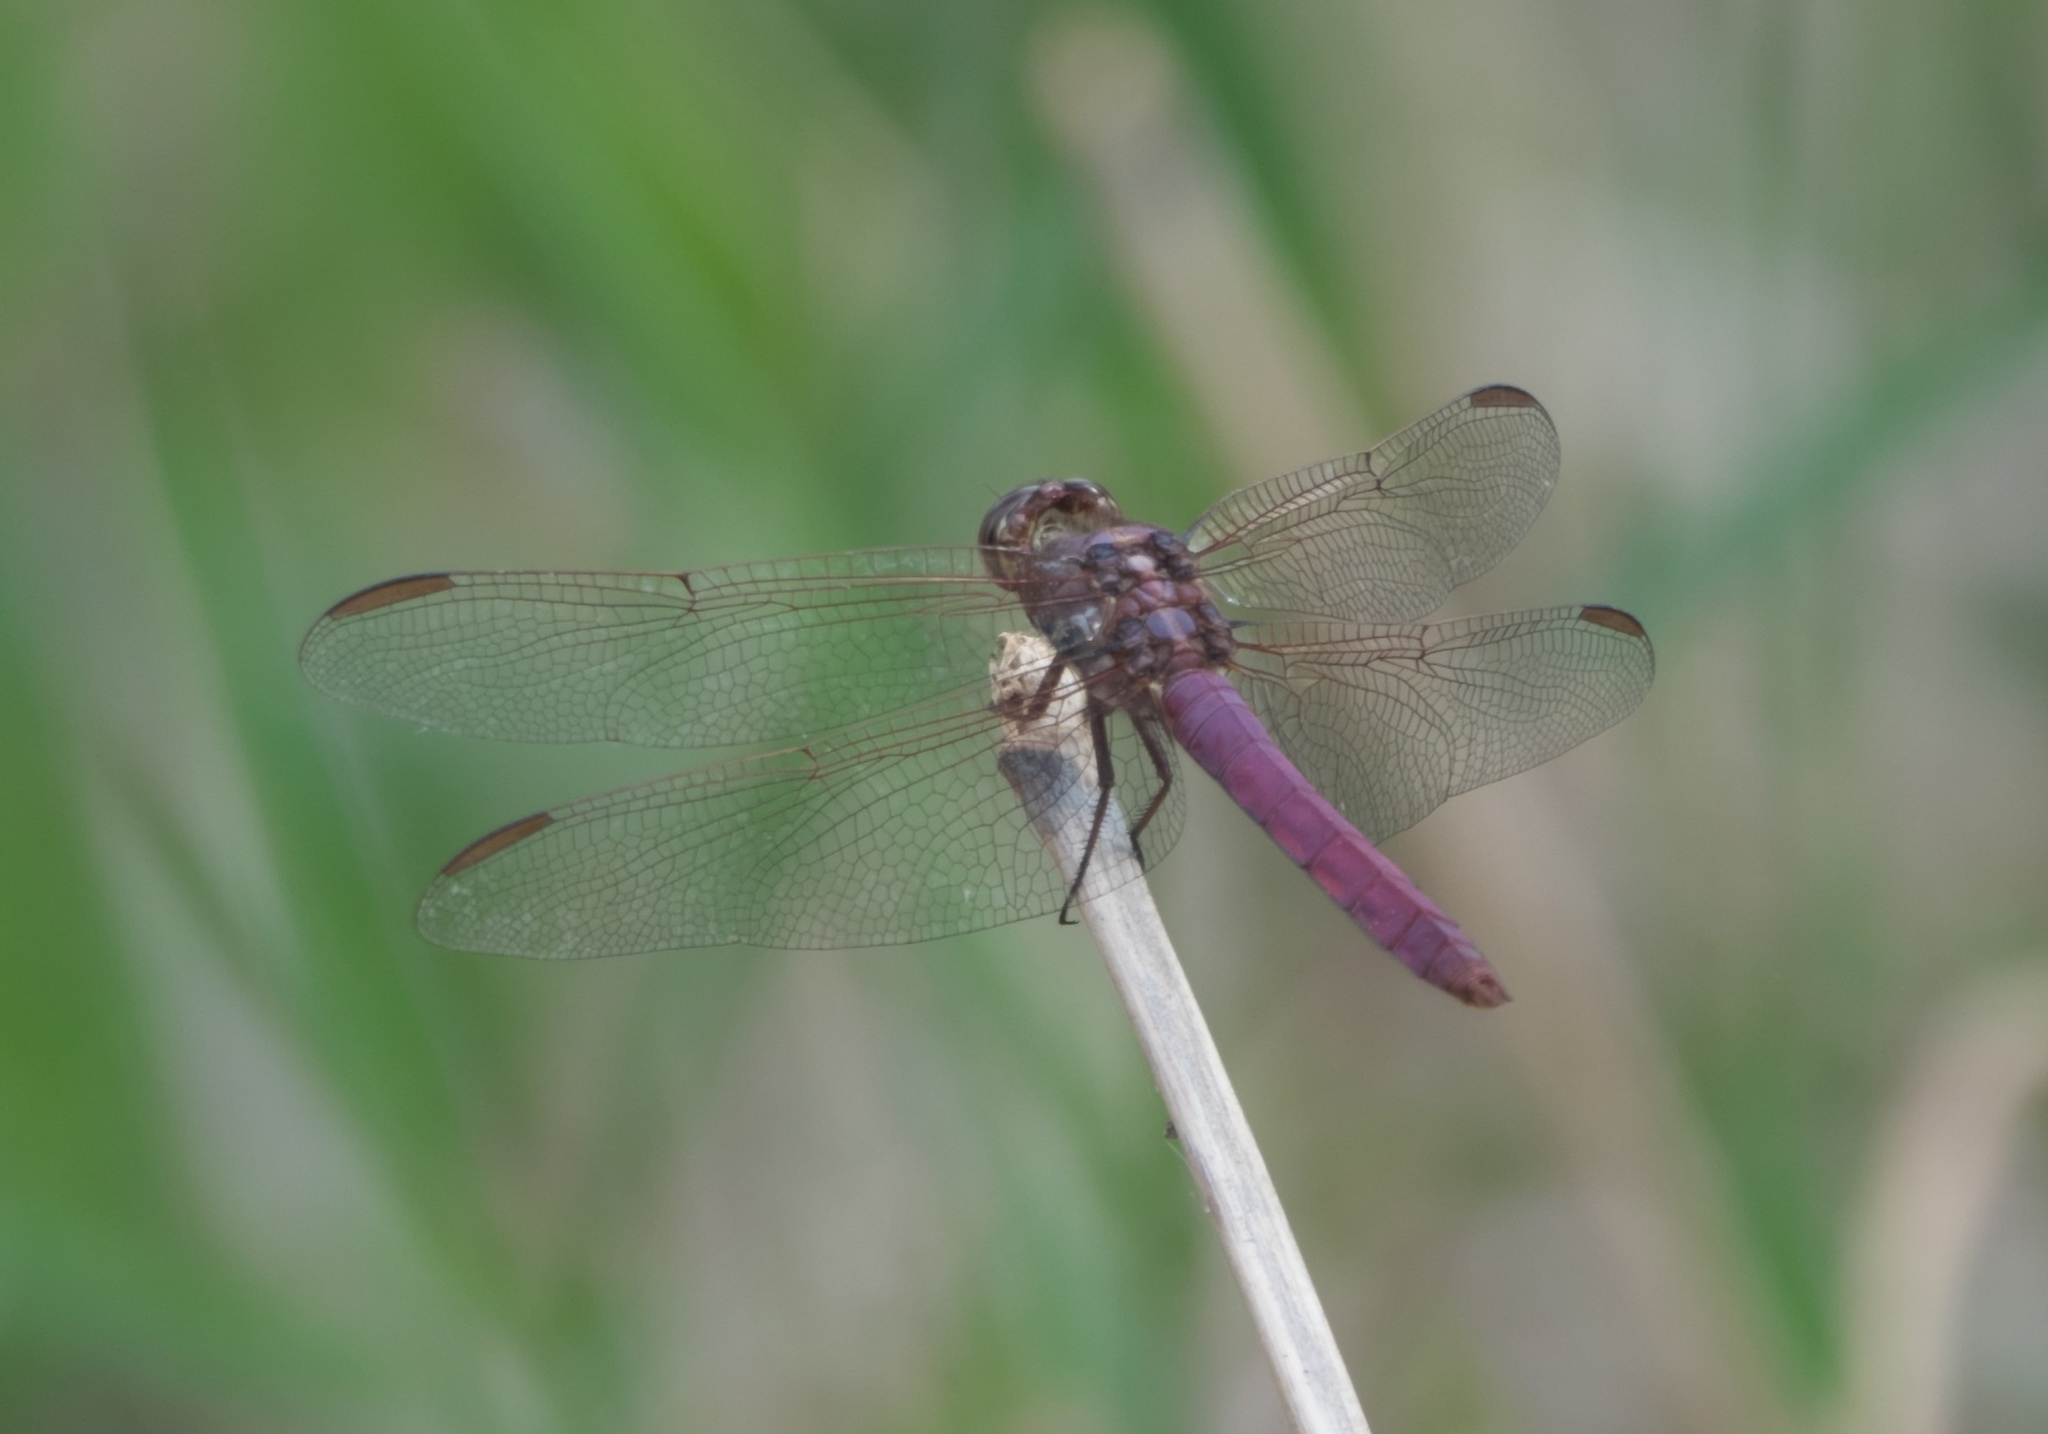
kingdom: Animalia
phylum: Arthropoda
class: Insecta
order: Odonata
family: Libellulidae
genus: Orthemis
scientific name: Orthemis ferruginea
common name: Roseate skimmer
